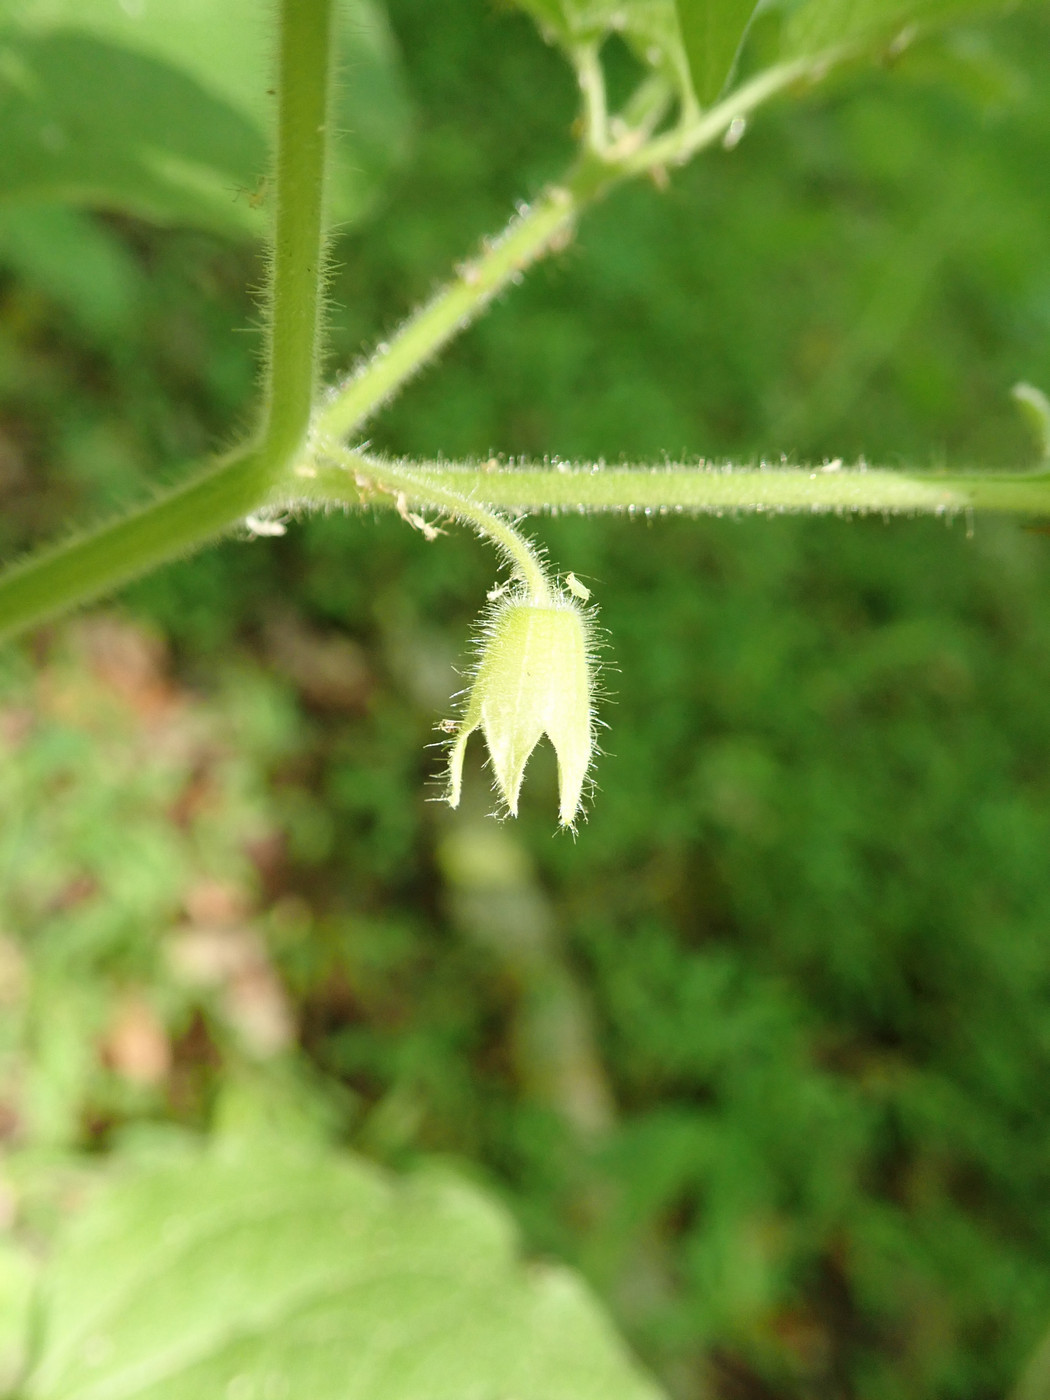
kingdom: Plantae
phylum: Tracheophyta
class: Magnoliopsida
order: Solanales
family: Solanaceae
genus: Physalis
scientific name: Physalis heterophylla
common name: Clammy ground-cherry
